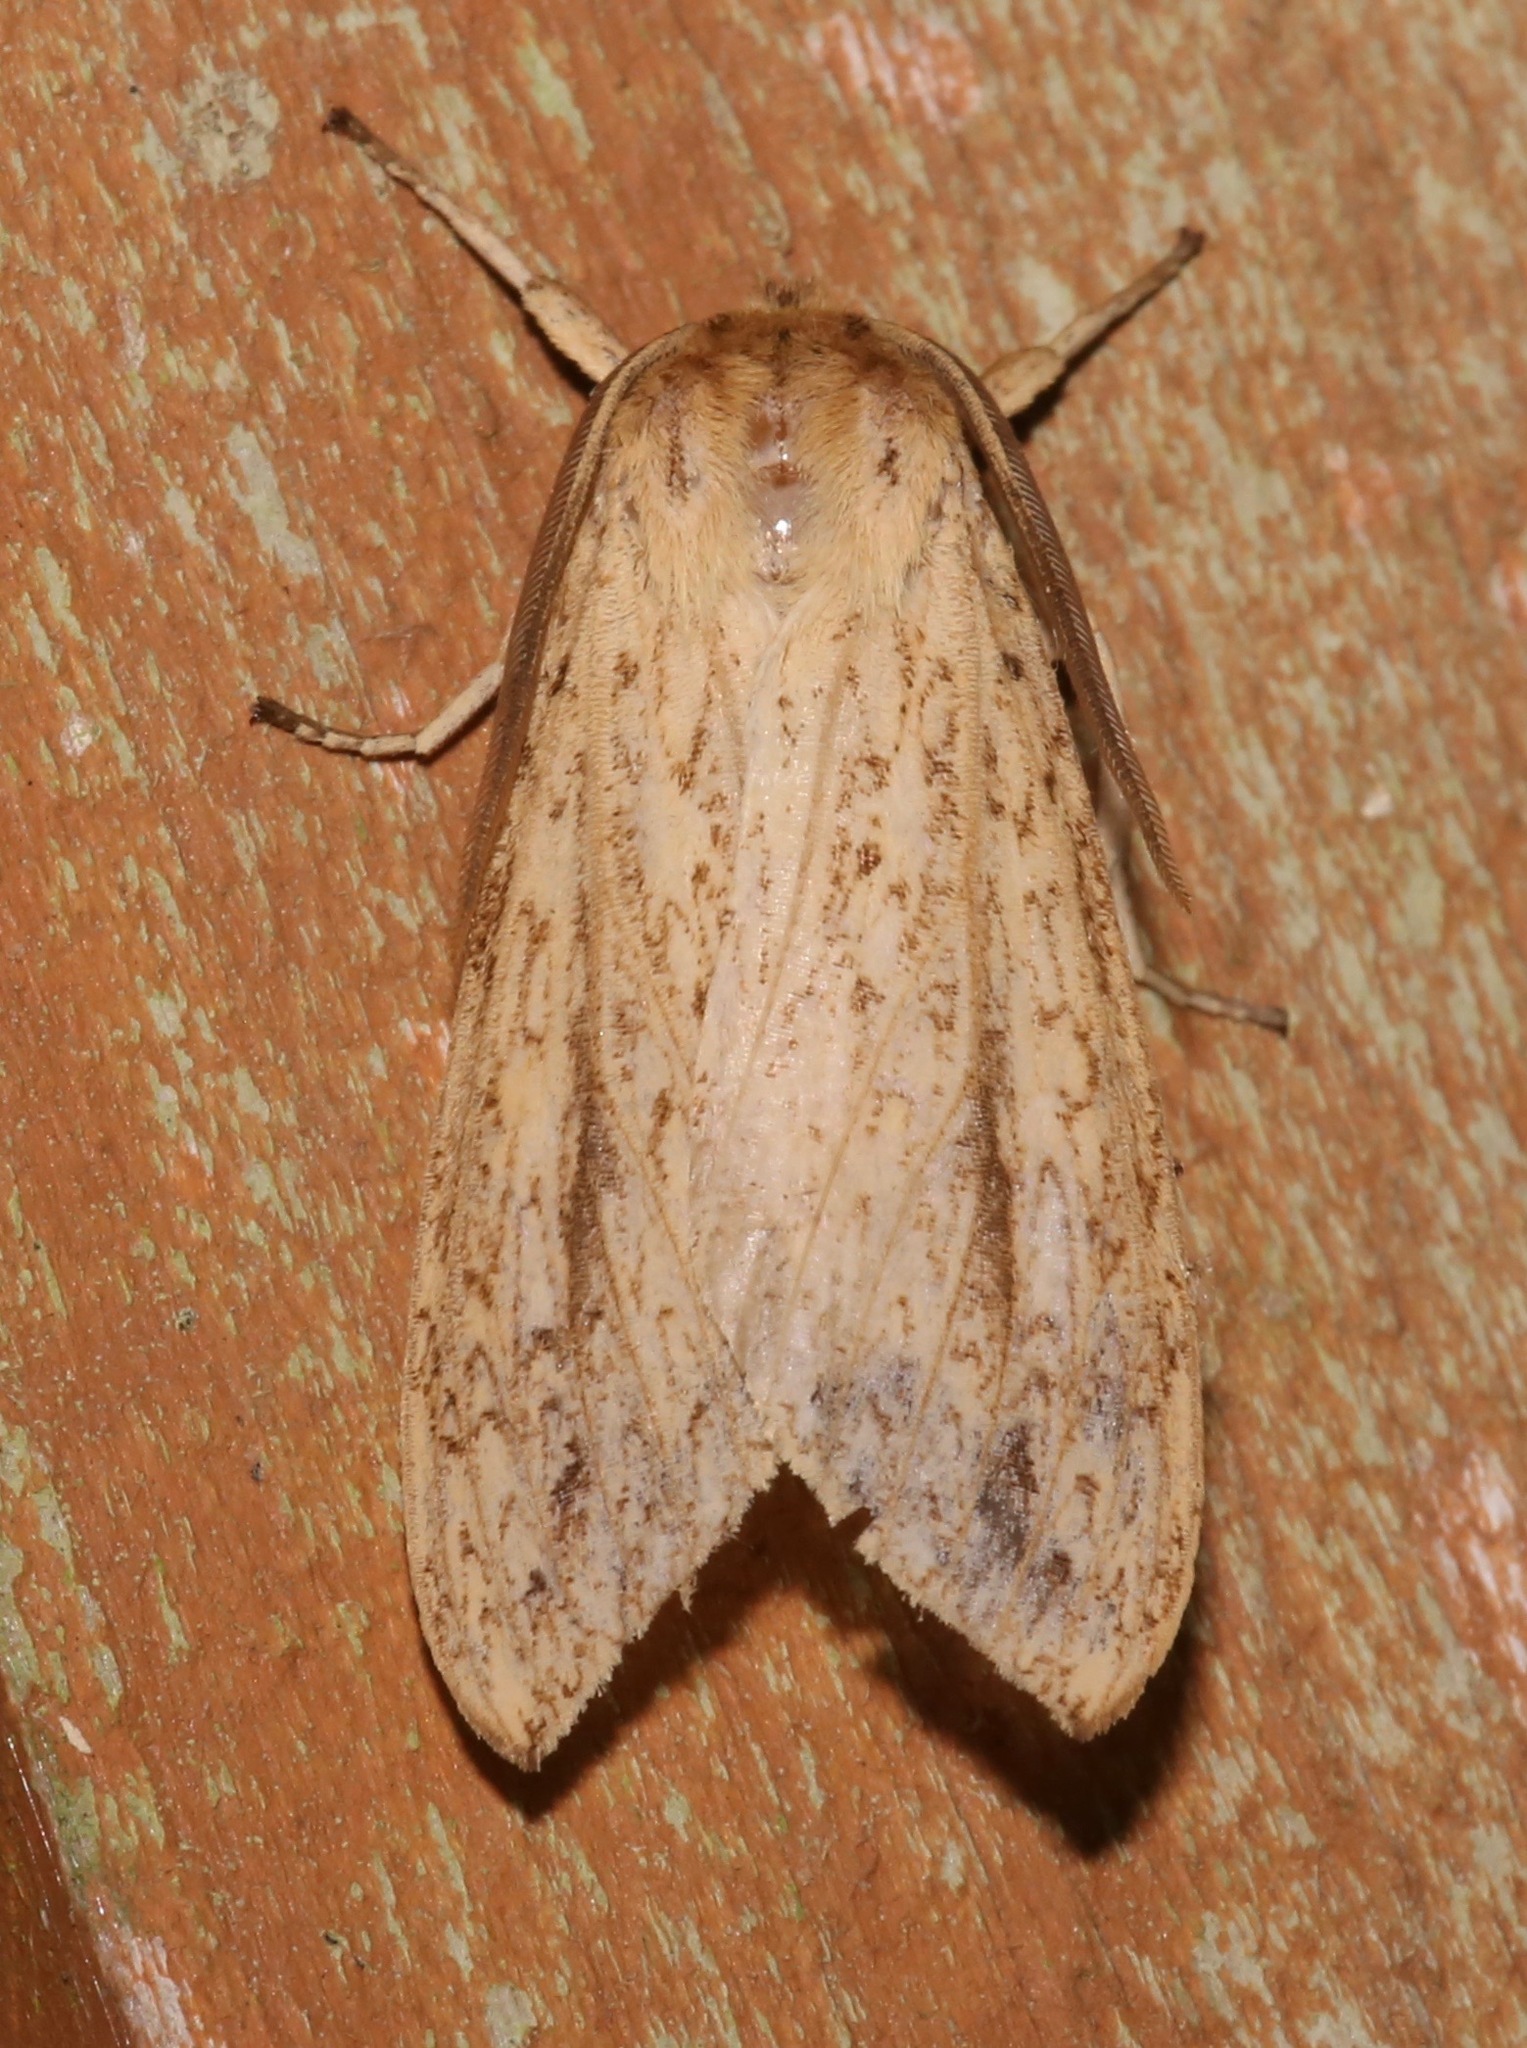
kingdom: Animalia
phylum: Arthropoda
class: Insecta
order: Lepidoptera
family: Erebidae
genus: Leucanopsis
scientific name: Leucanopsis longa
